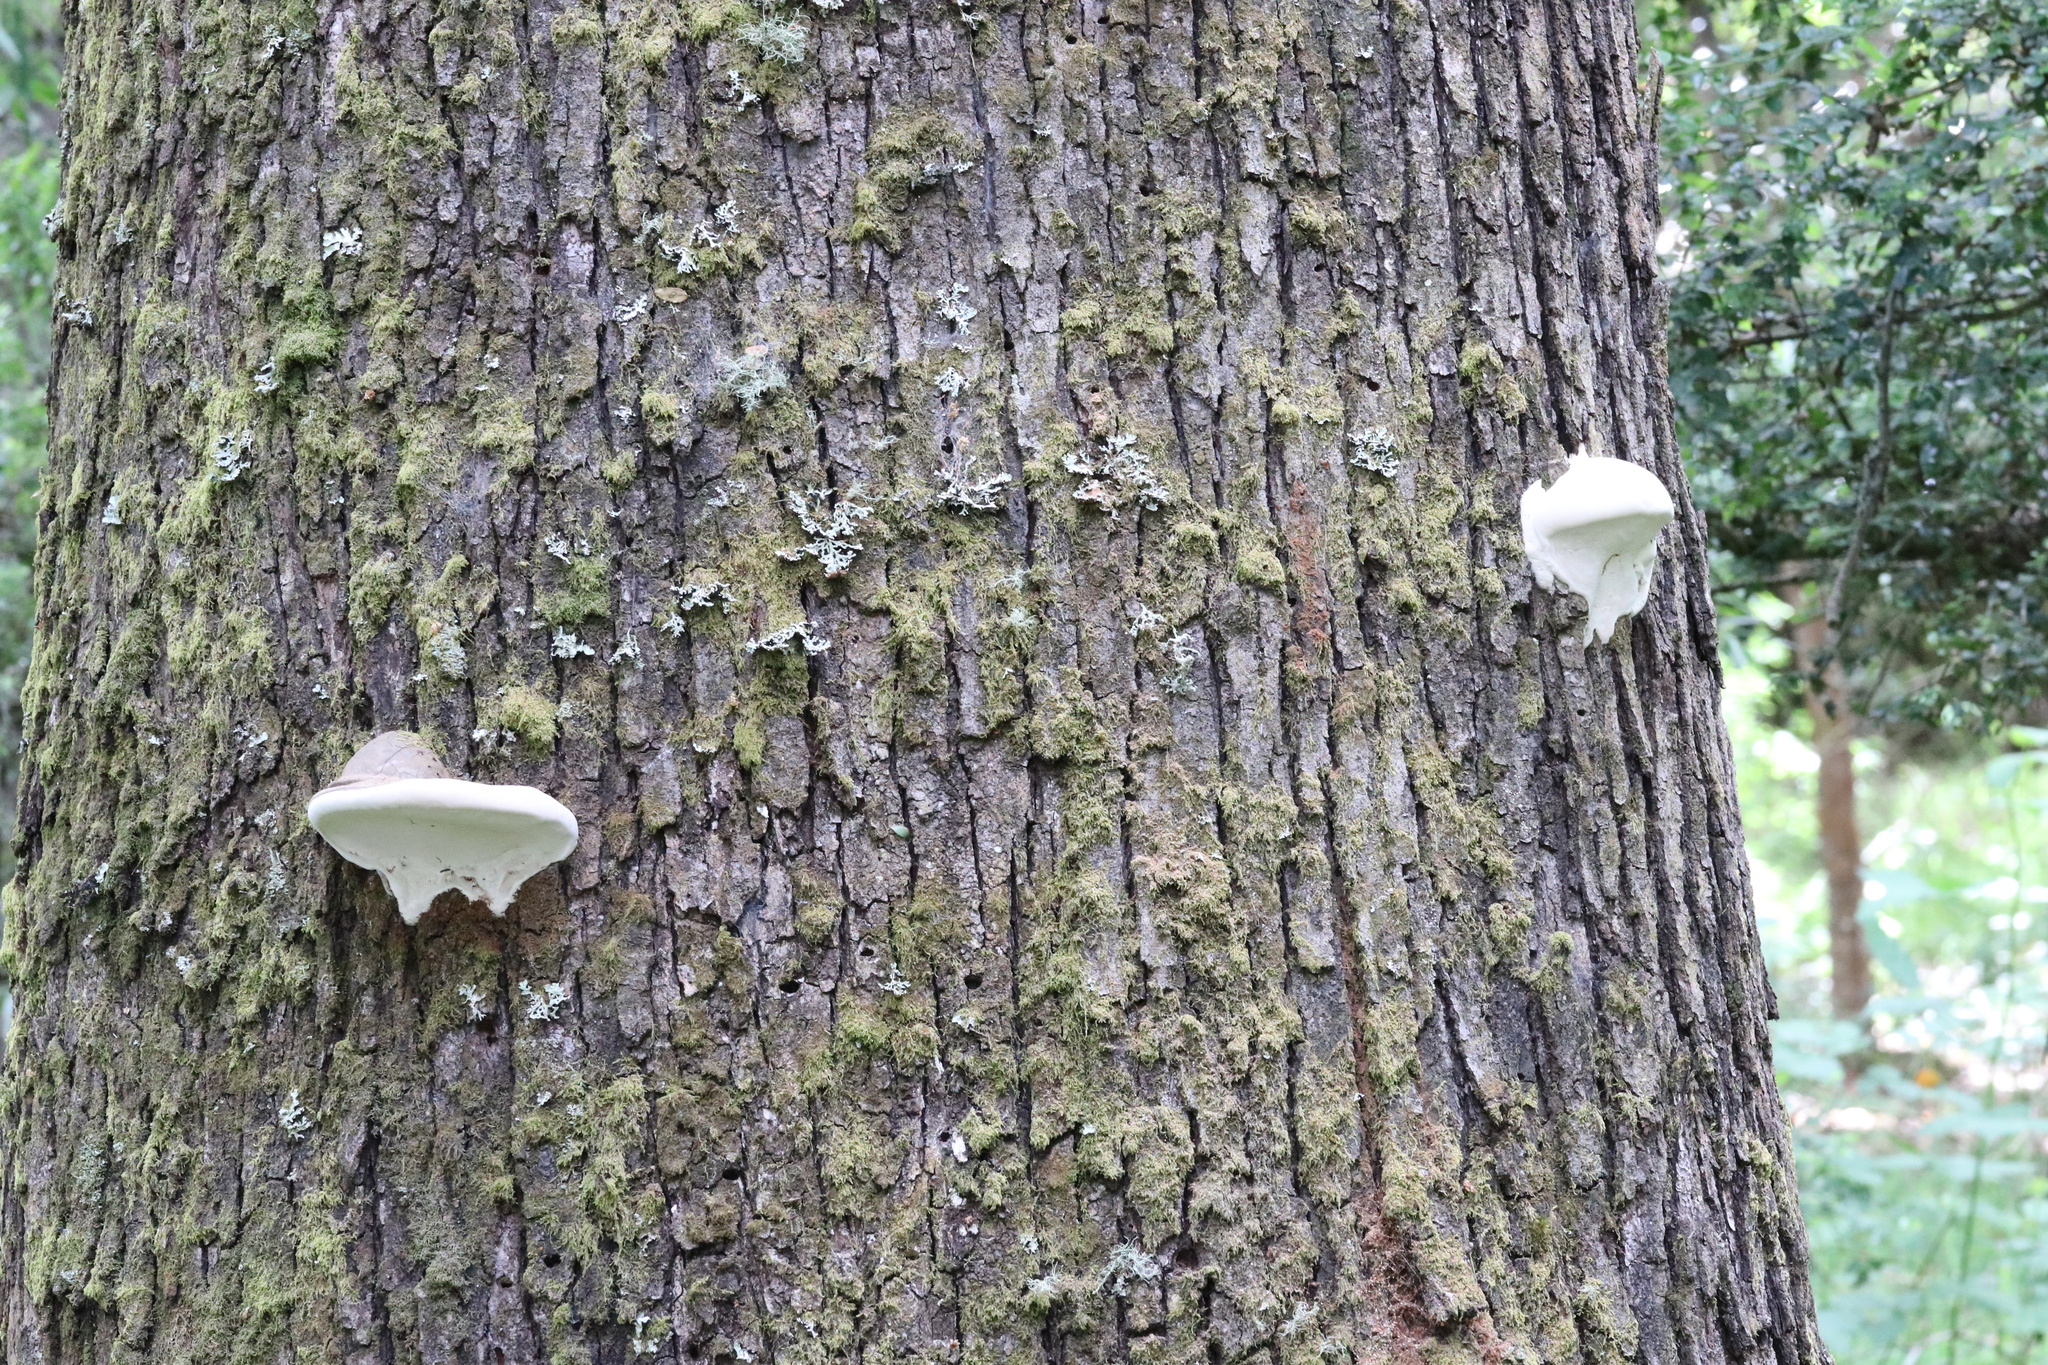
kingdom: Fungi
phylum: Basidiomycota
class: Agaricomycetes
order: Polyporales
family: Polyporaceae
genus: Ganoderma
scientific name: Ganoderma australe
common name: Southern bracket
